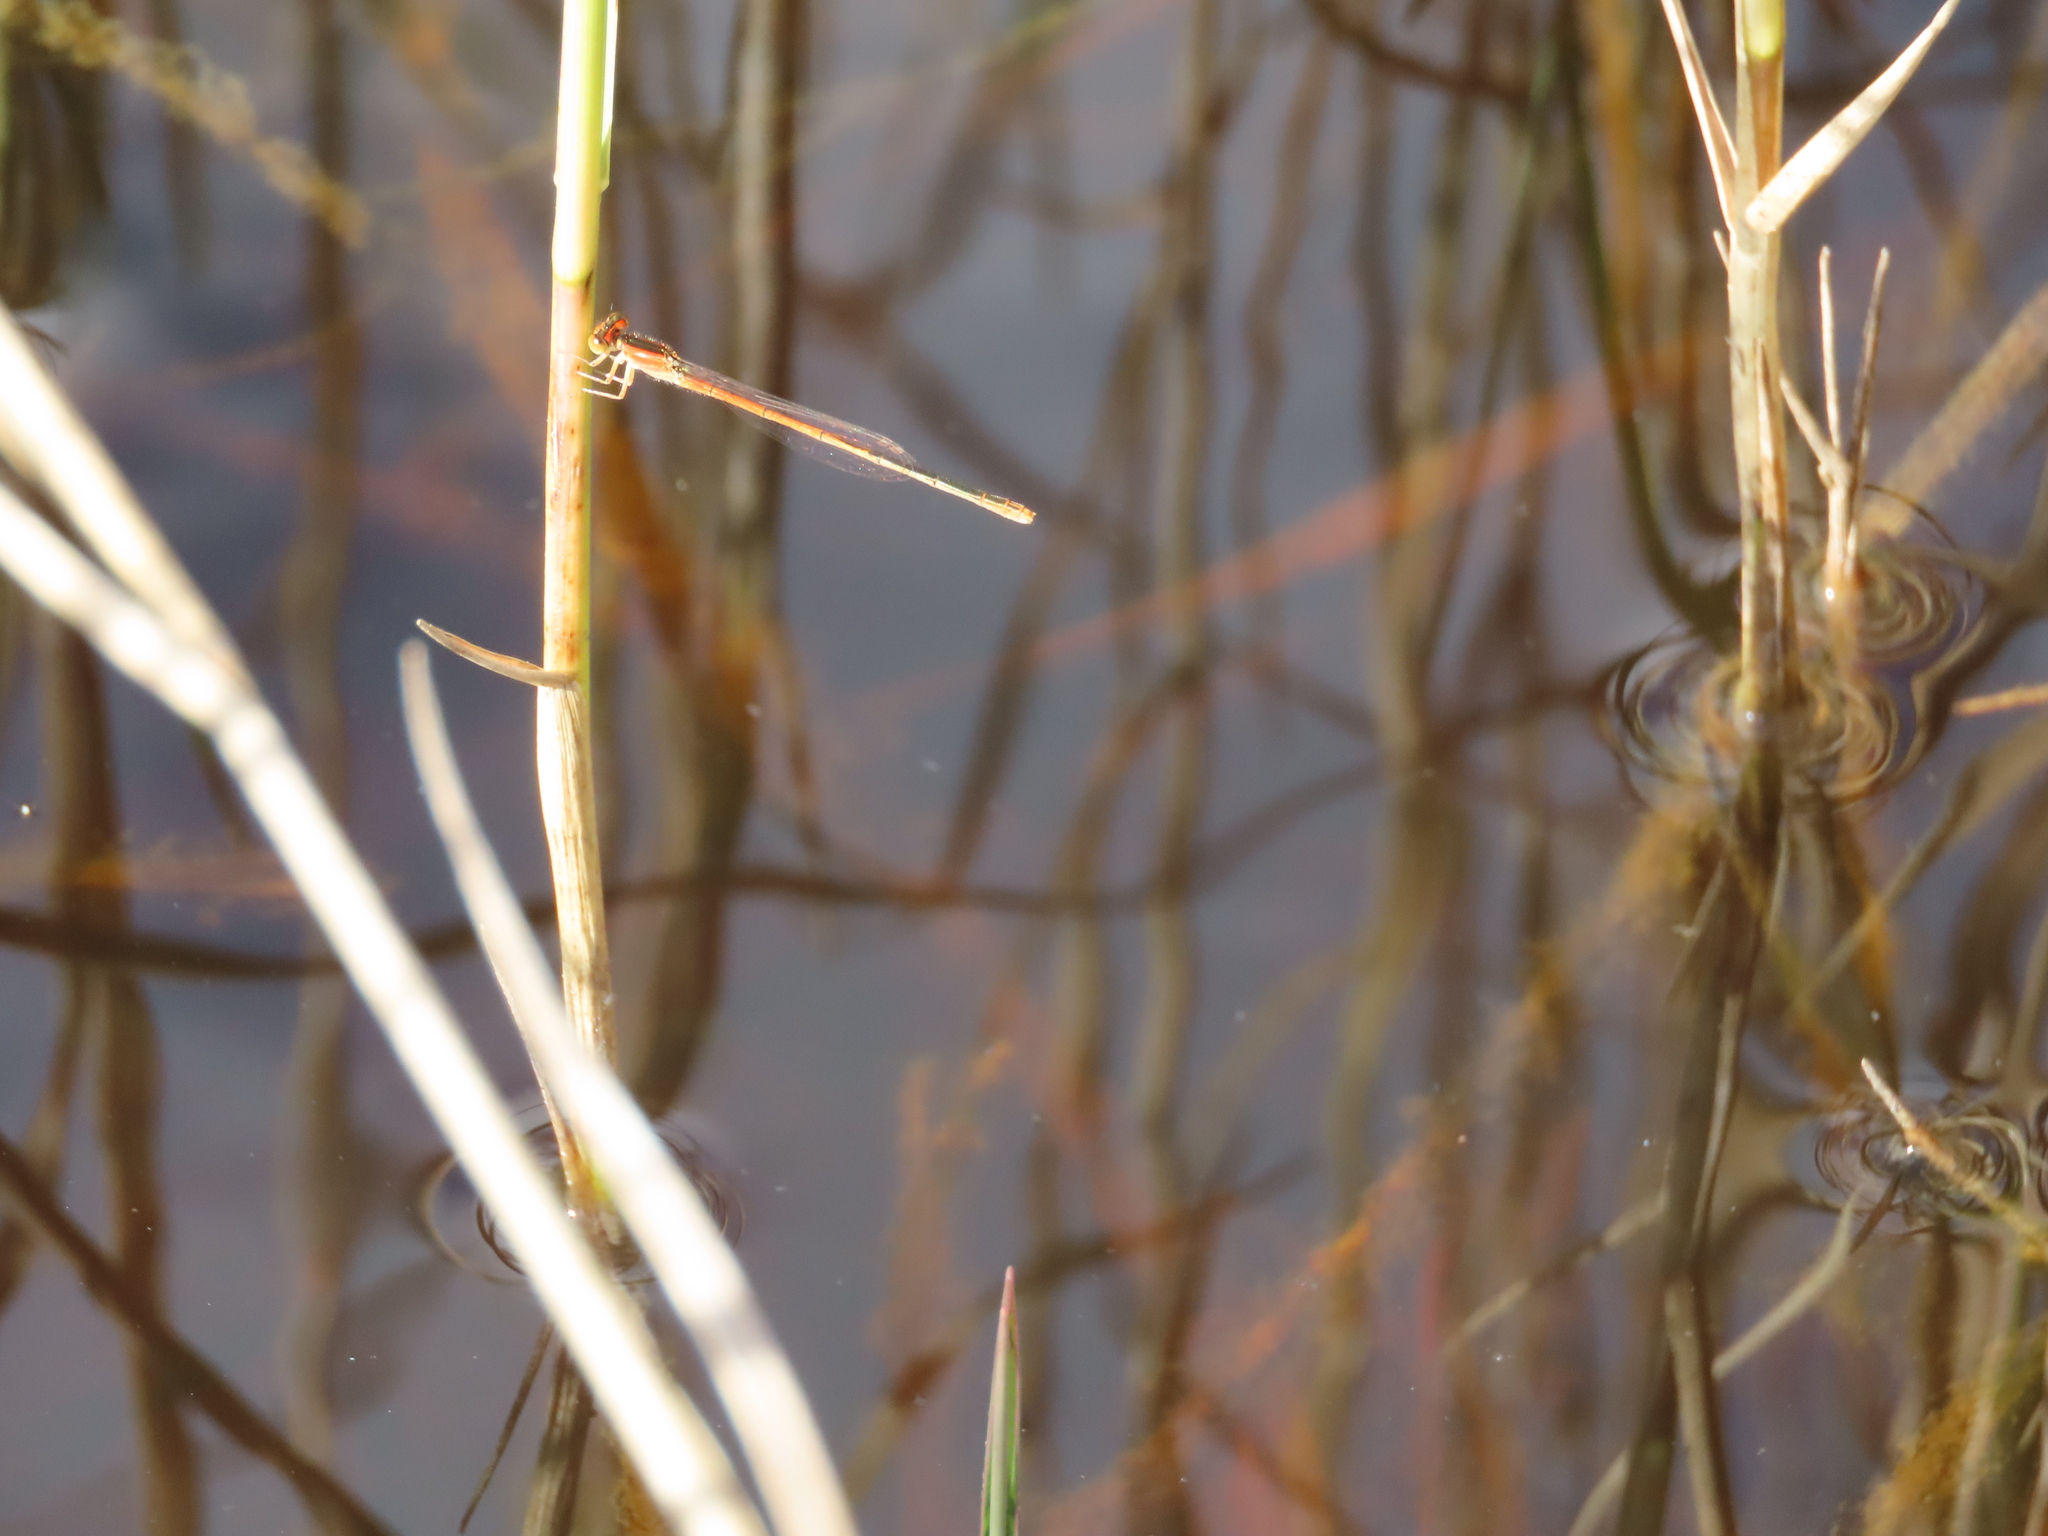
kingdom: Animalia
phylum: Arthropoda
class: Insecta
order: Odonata
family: Coenagrionidae
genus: Ischnura
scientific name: Ischnura hastata
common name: Citrine forktail
